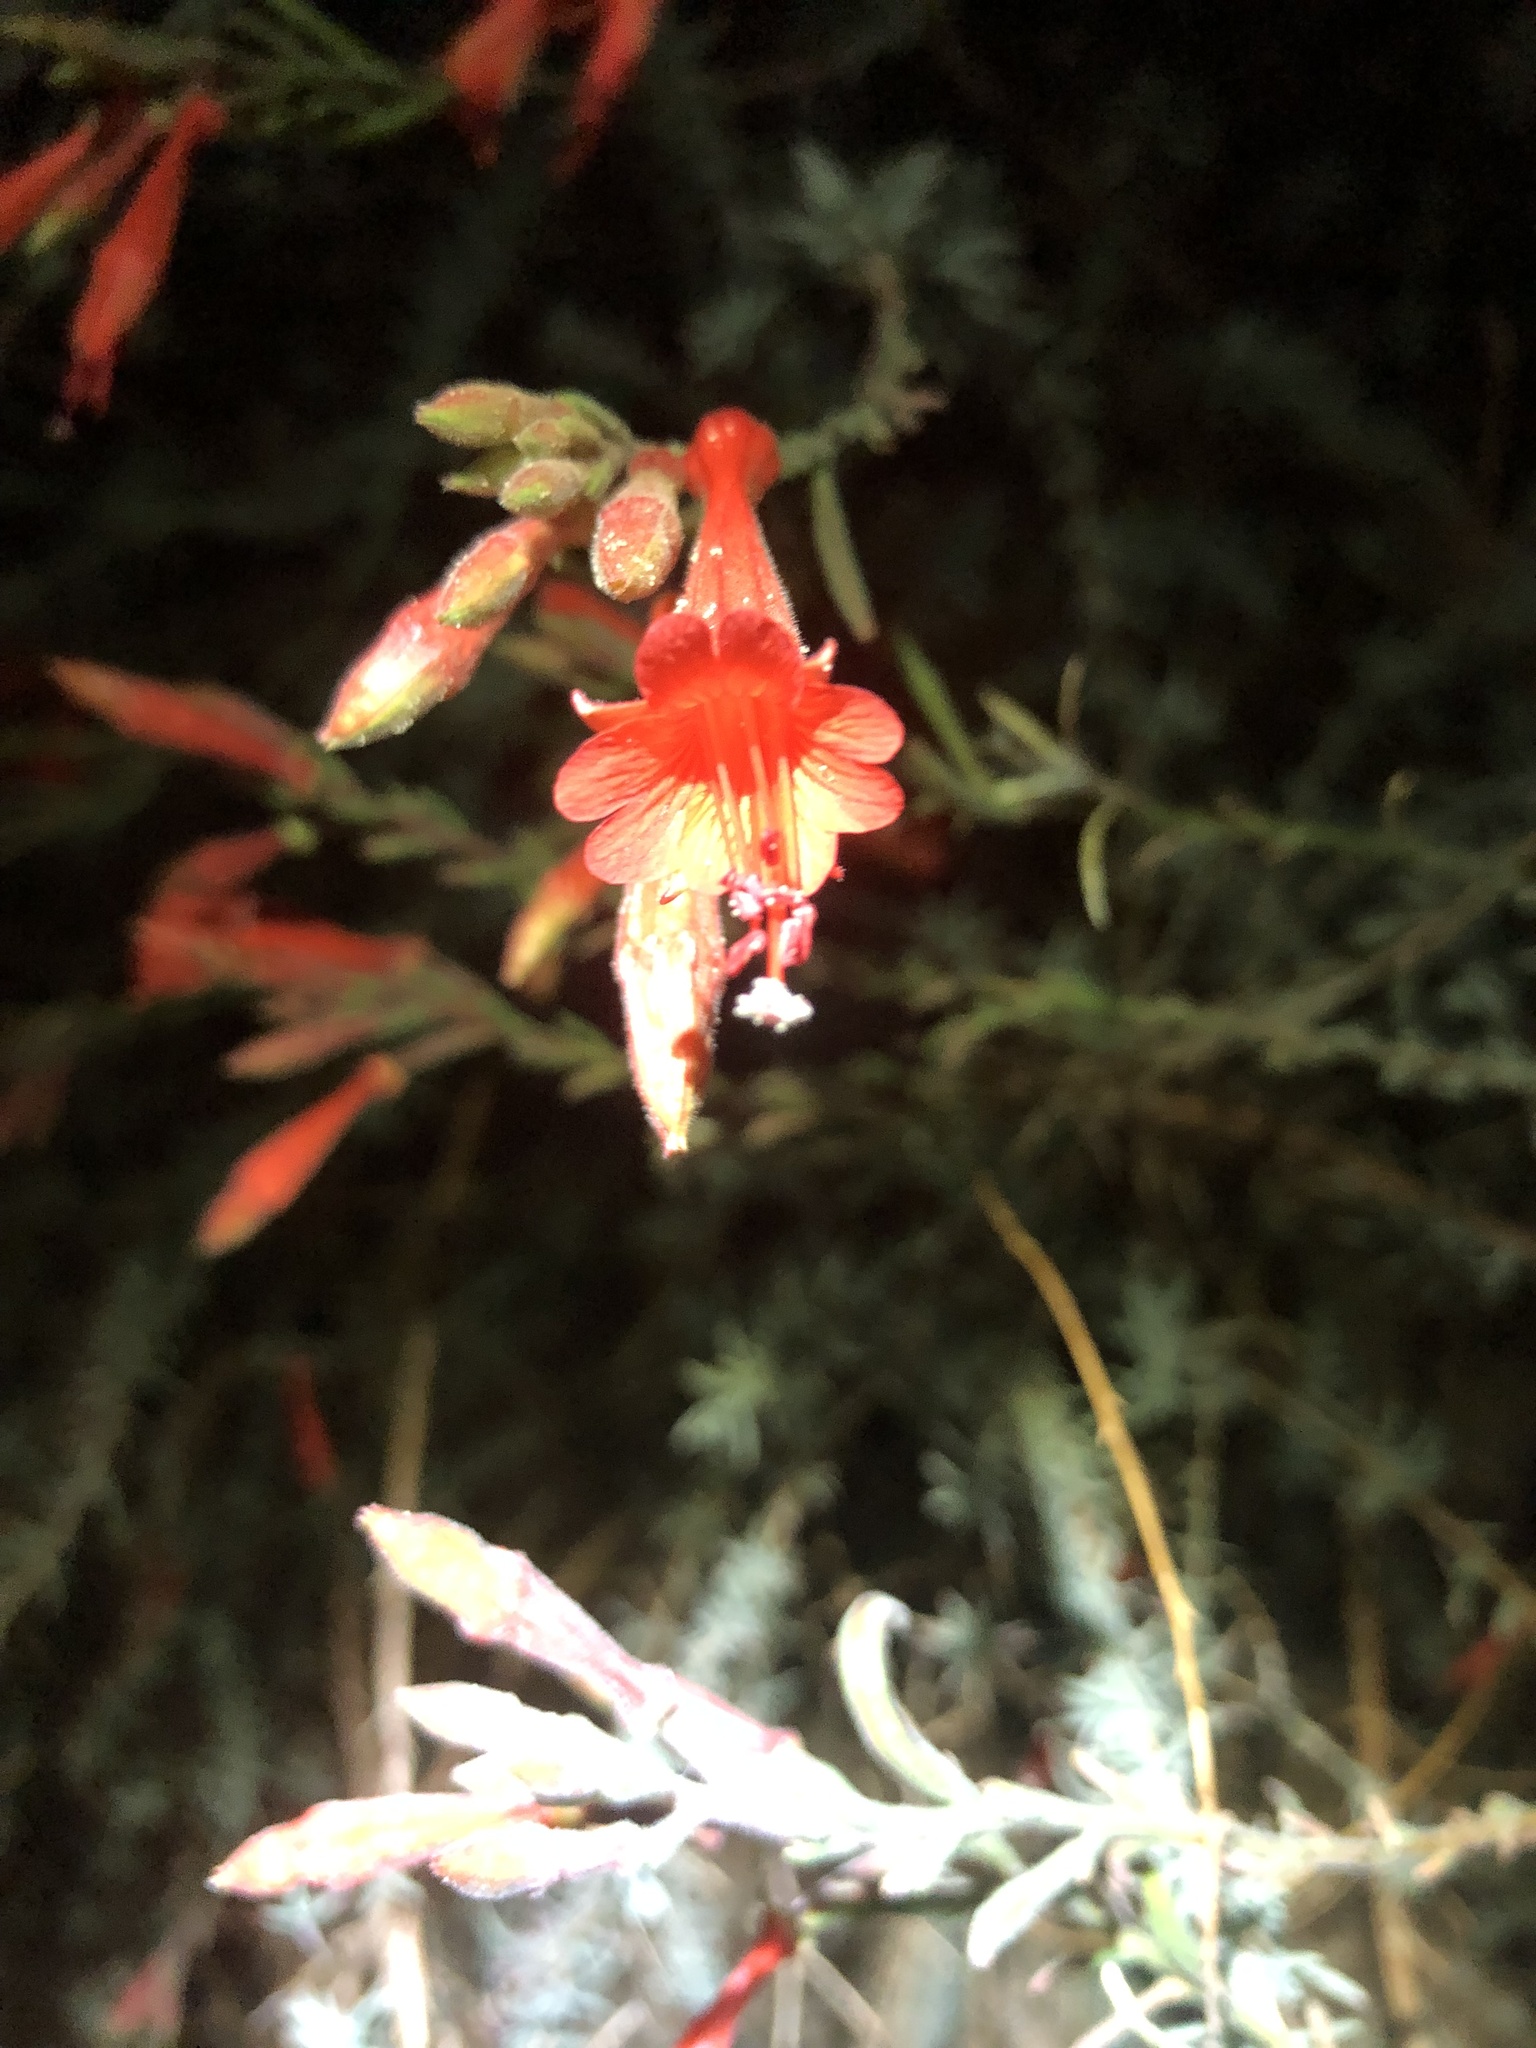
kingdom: Plantae
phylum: Tracheophyta
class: Magnoliopsida
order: Myrtales
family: Onagraceae
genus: Epilobium
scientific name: Epilobium canum
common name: California-fuchsia
